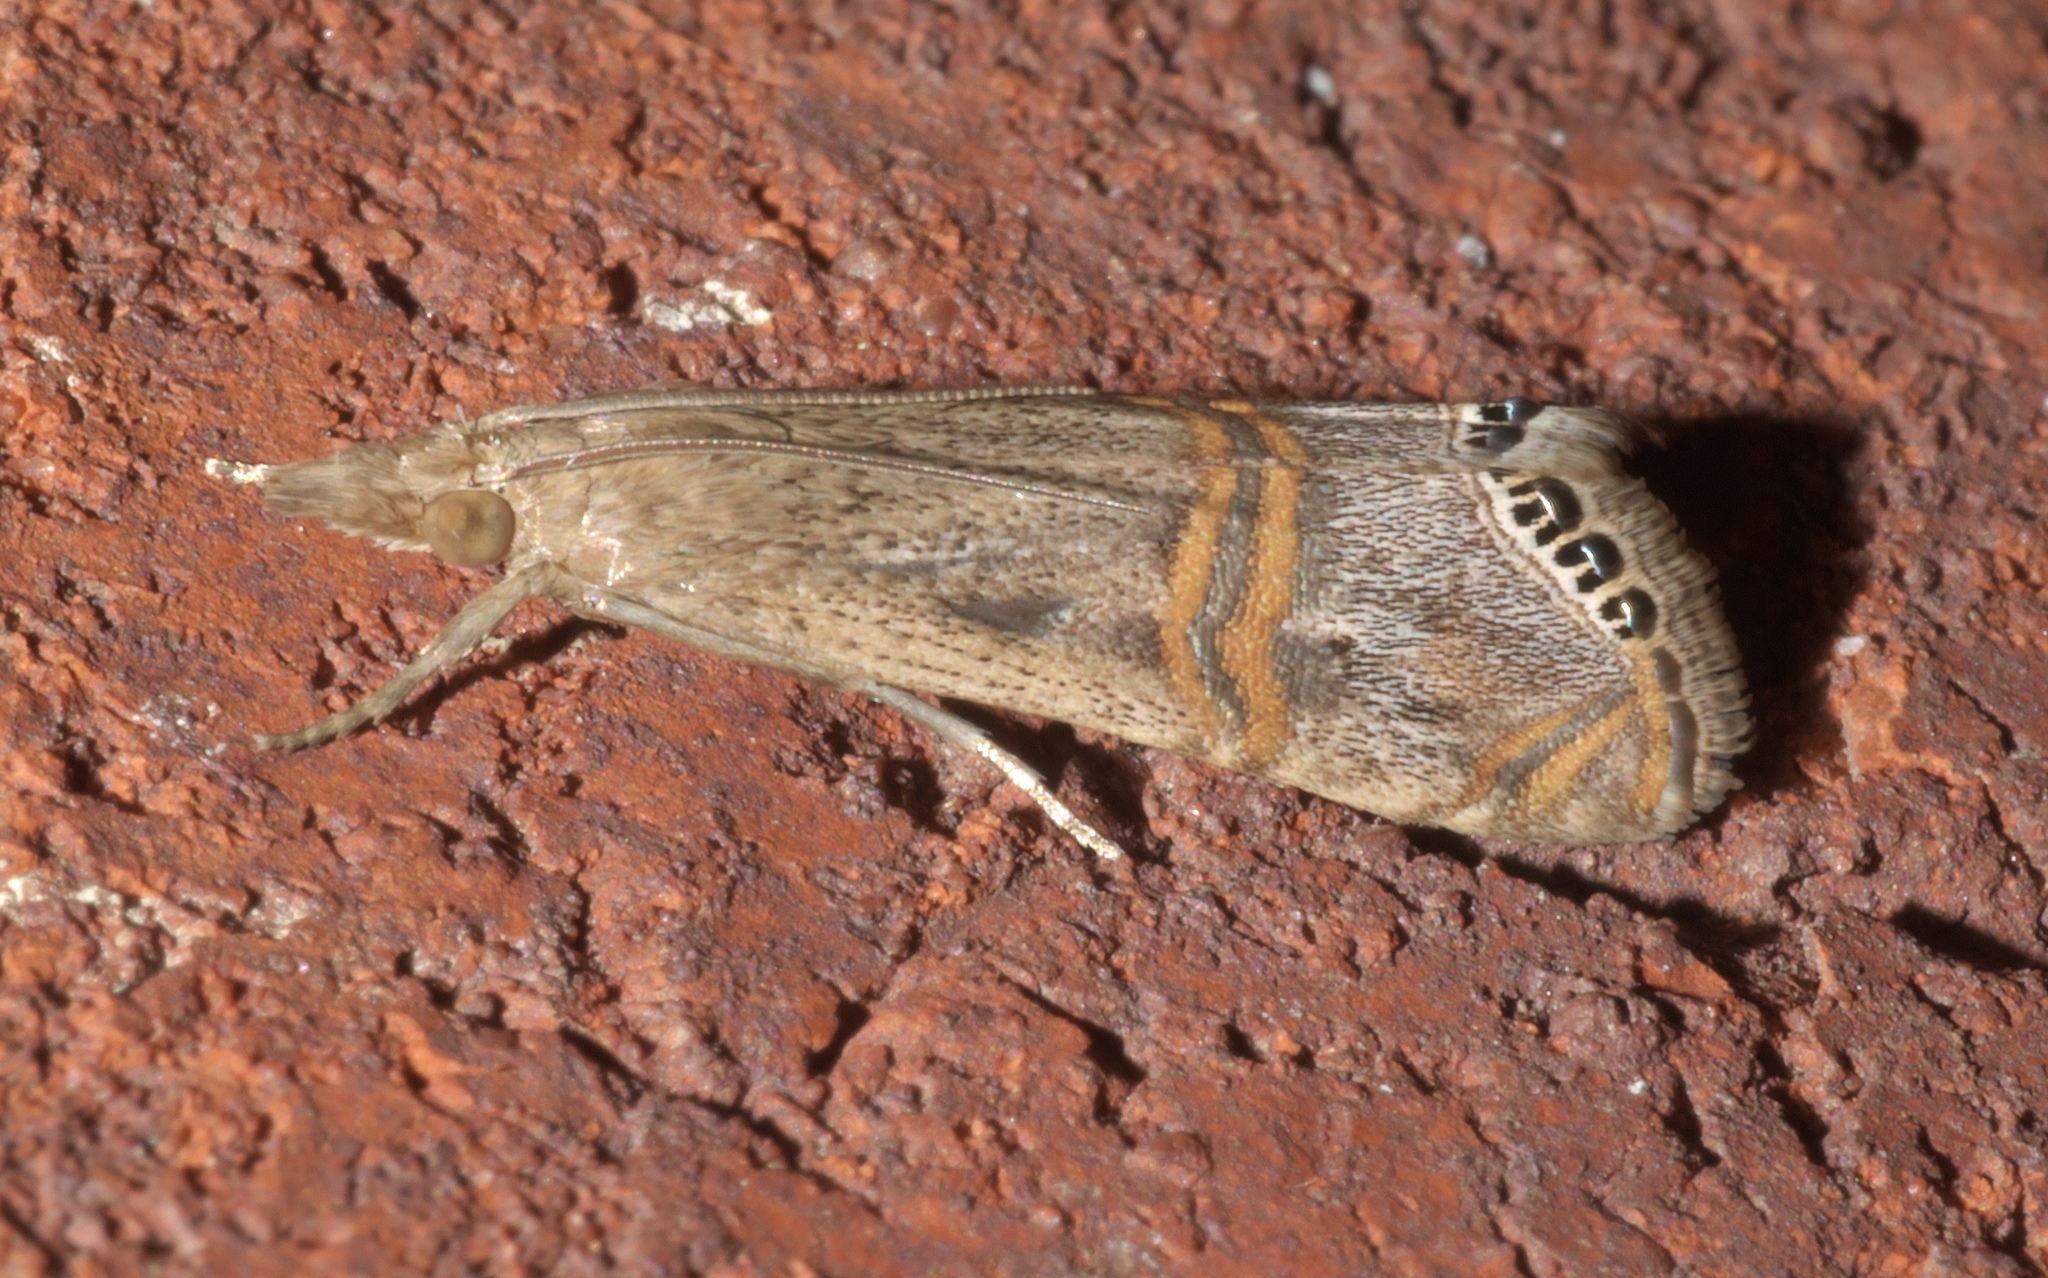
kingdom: Animalia
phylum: Arthropoda
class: Insecta
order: Lepidoptera
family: Crambidae
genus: Euchromius
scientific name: Euchromius ocellea
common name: Necklace veneer moth
